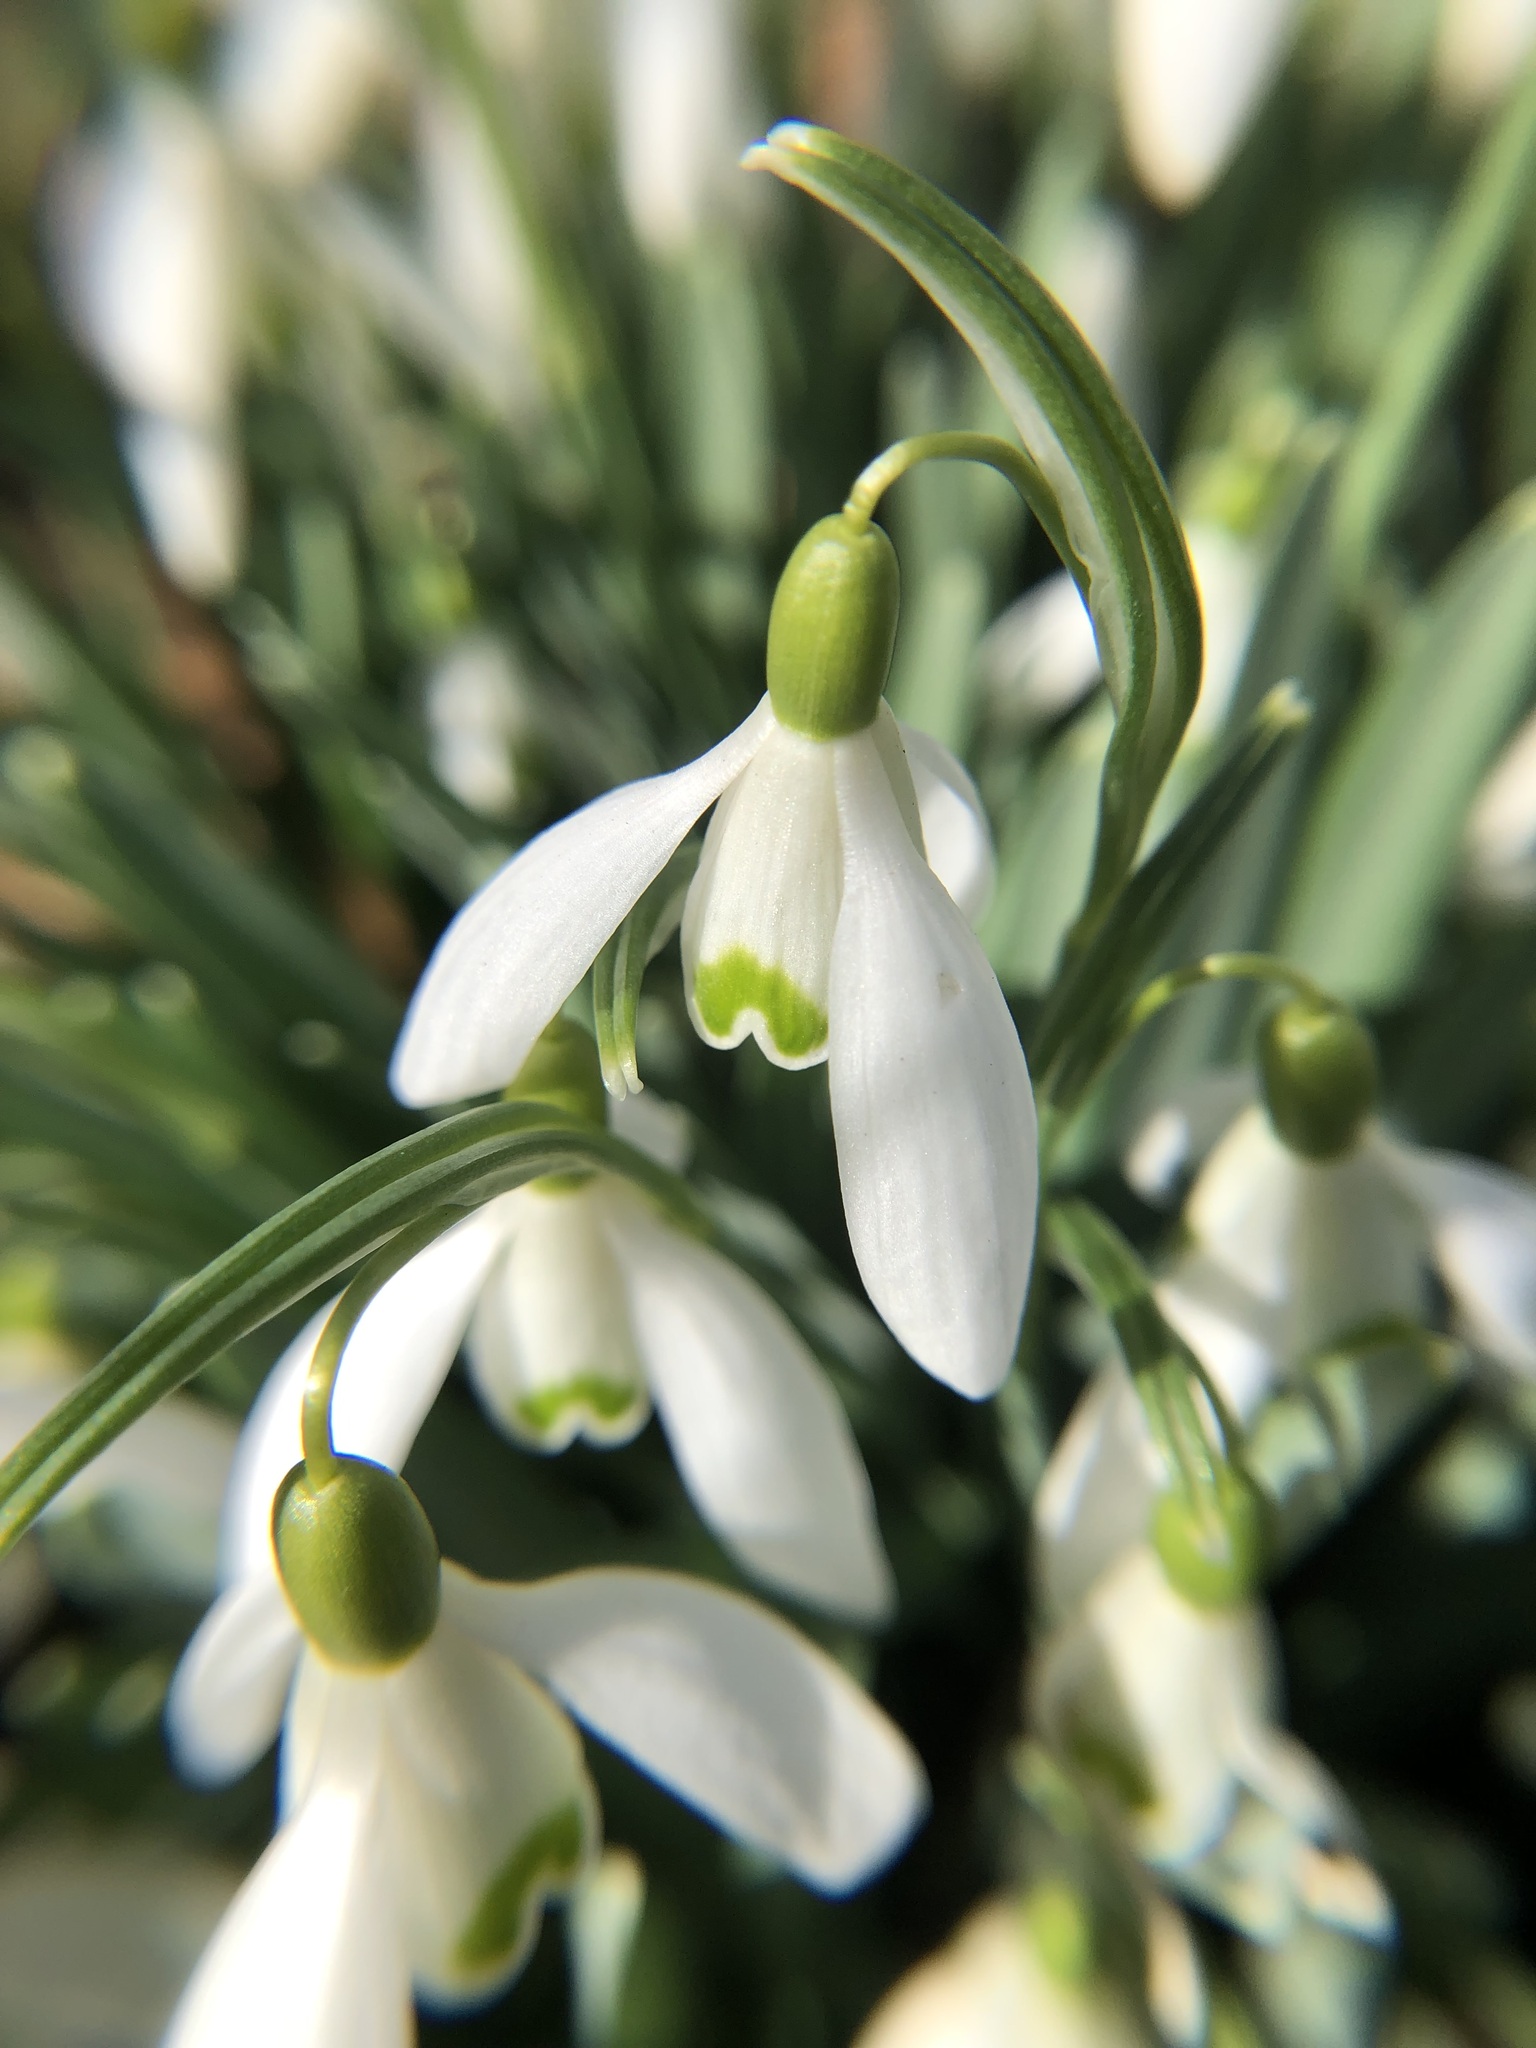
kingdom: Plantae
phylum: Tracheophyta
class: Liliopsida
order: Asparagales
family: Amaryllidaceae
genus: Galanthus
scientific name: Galanthus nivalis
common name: Snowdrop
